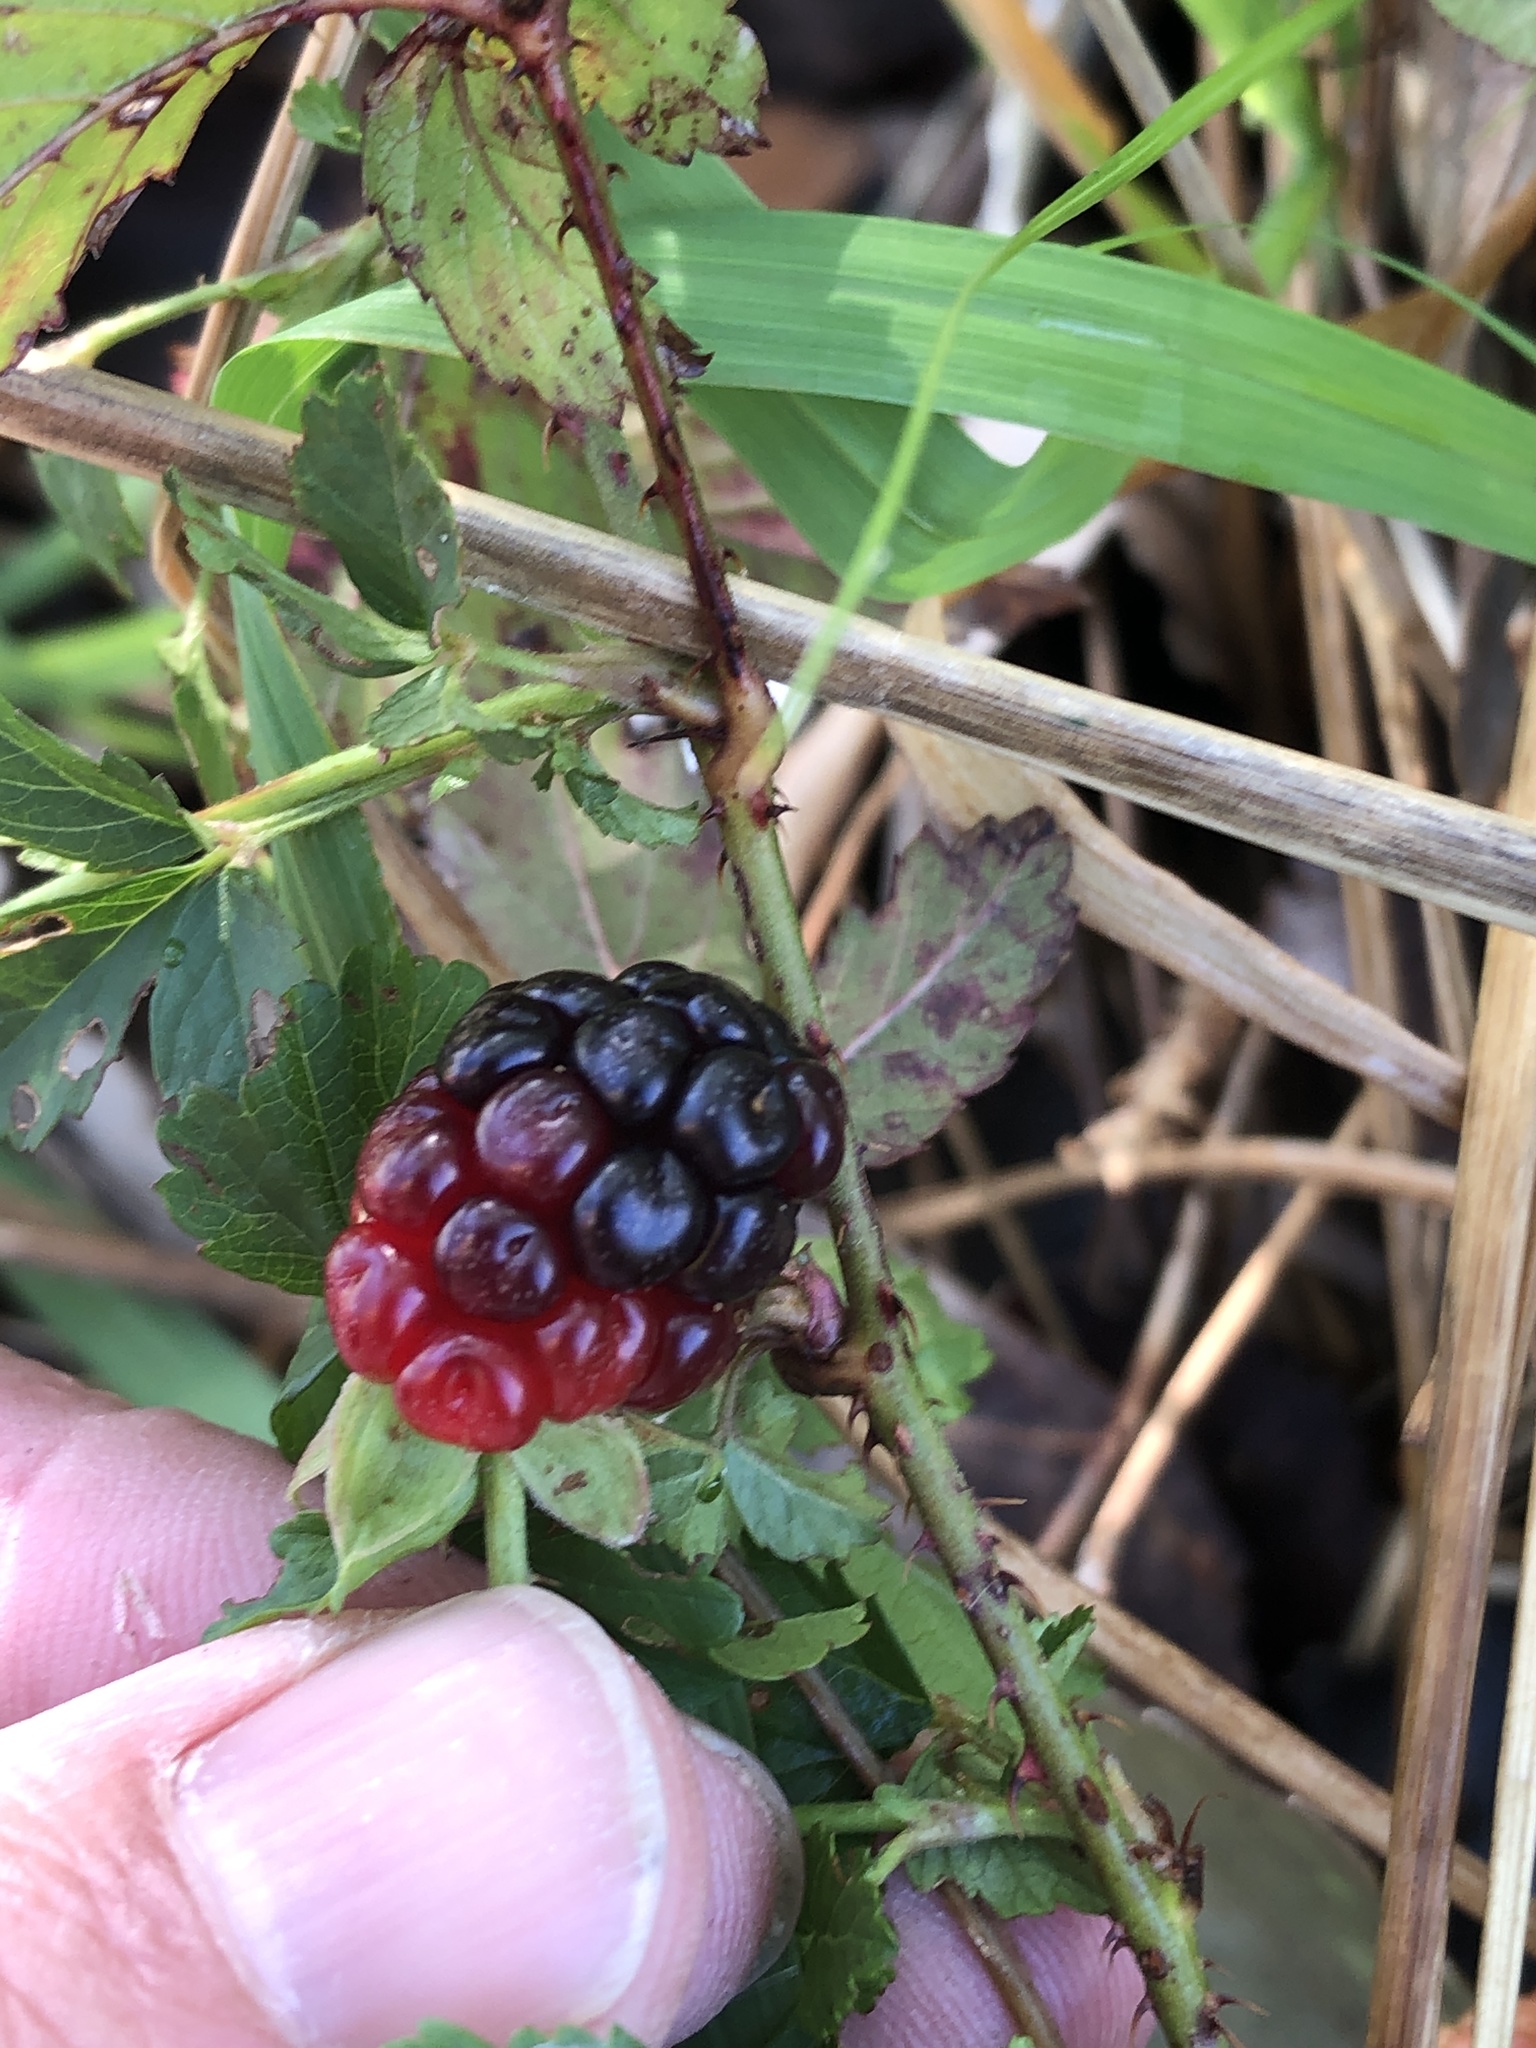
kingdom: Plantae
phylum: Tracheophyta
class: Magnoliopsida
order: Rosales
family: Rosaceae
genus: Rubus
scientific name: Rubus trivialis
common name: Southern dewberry
